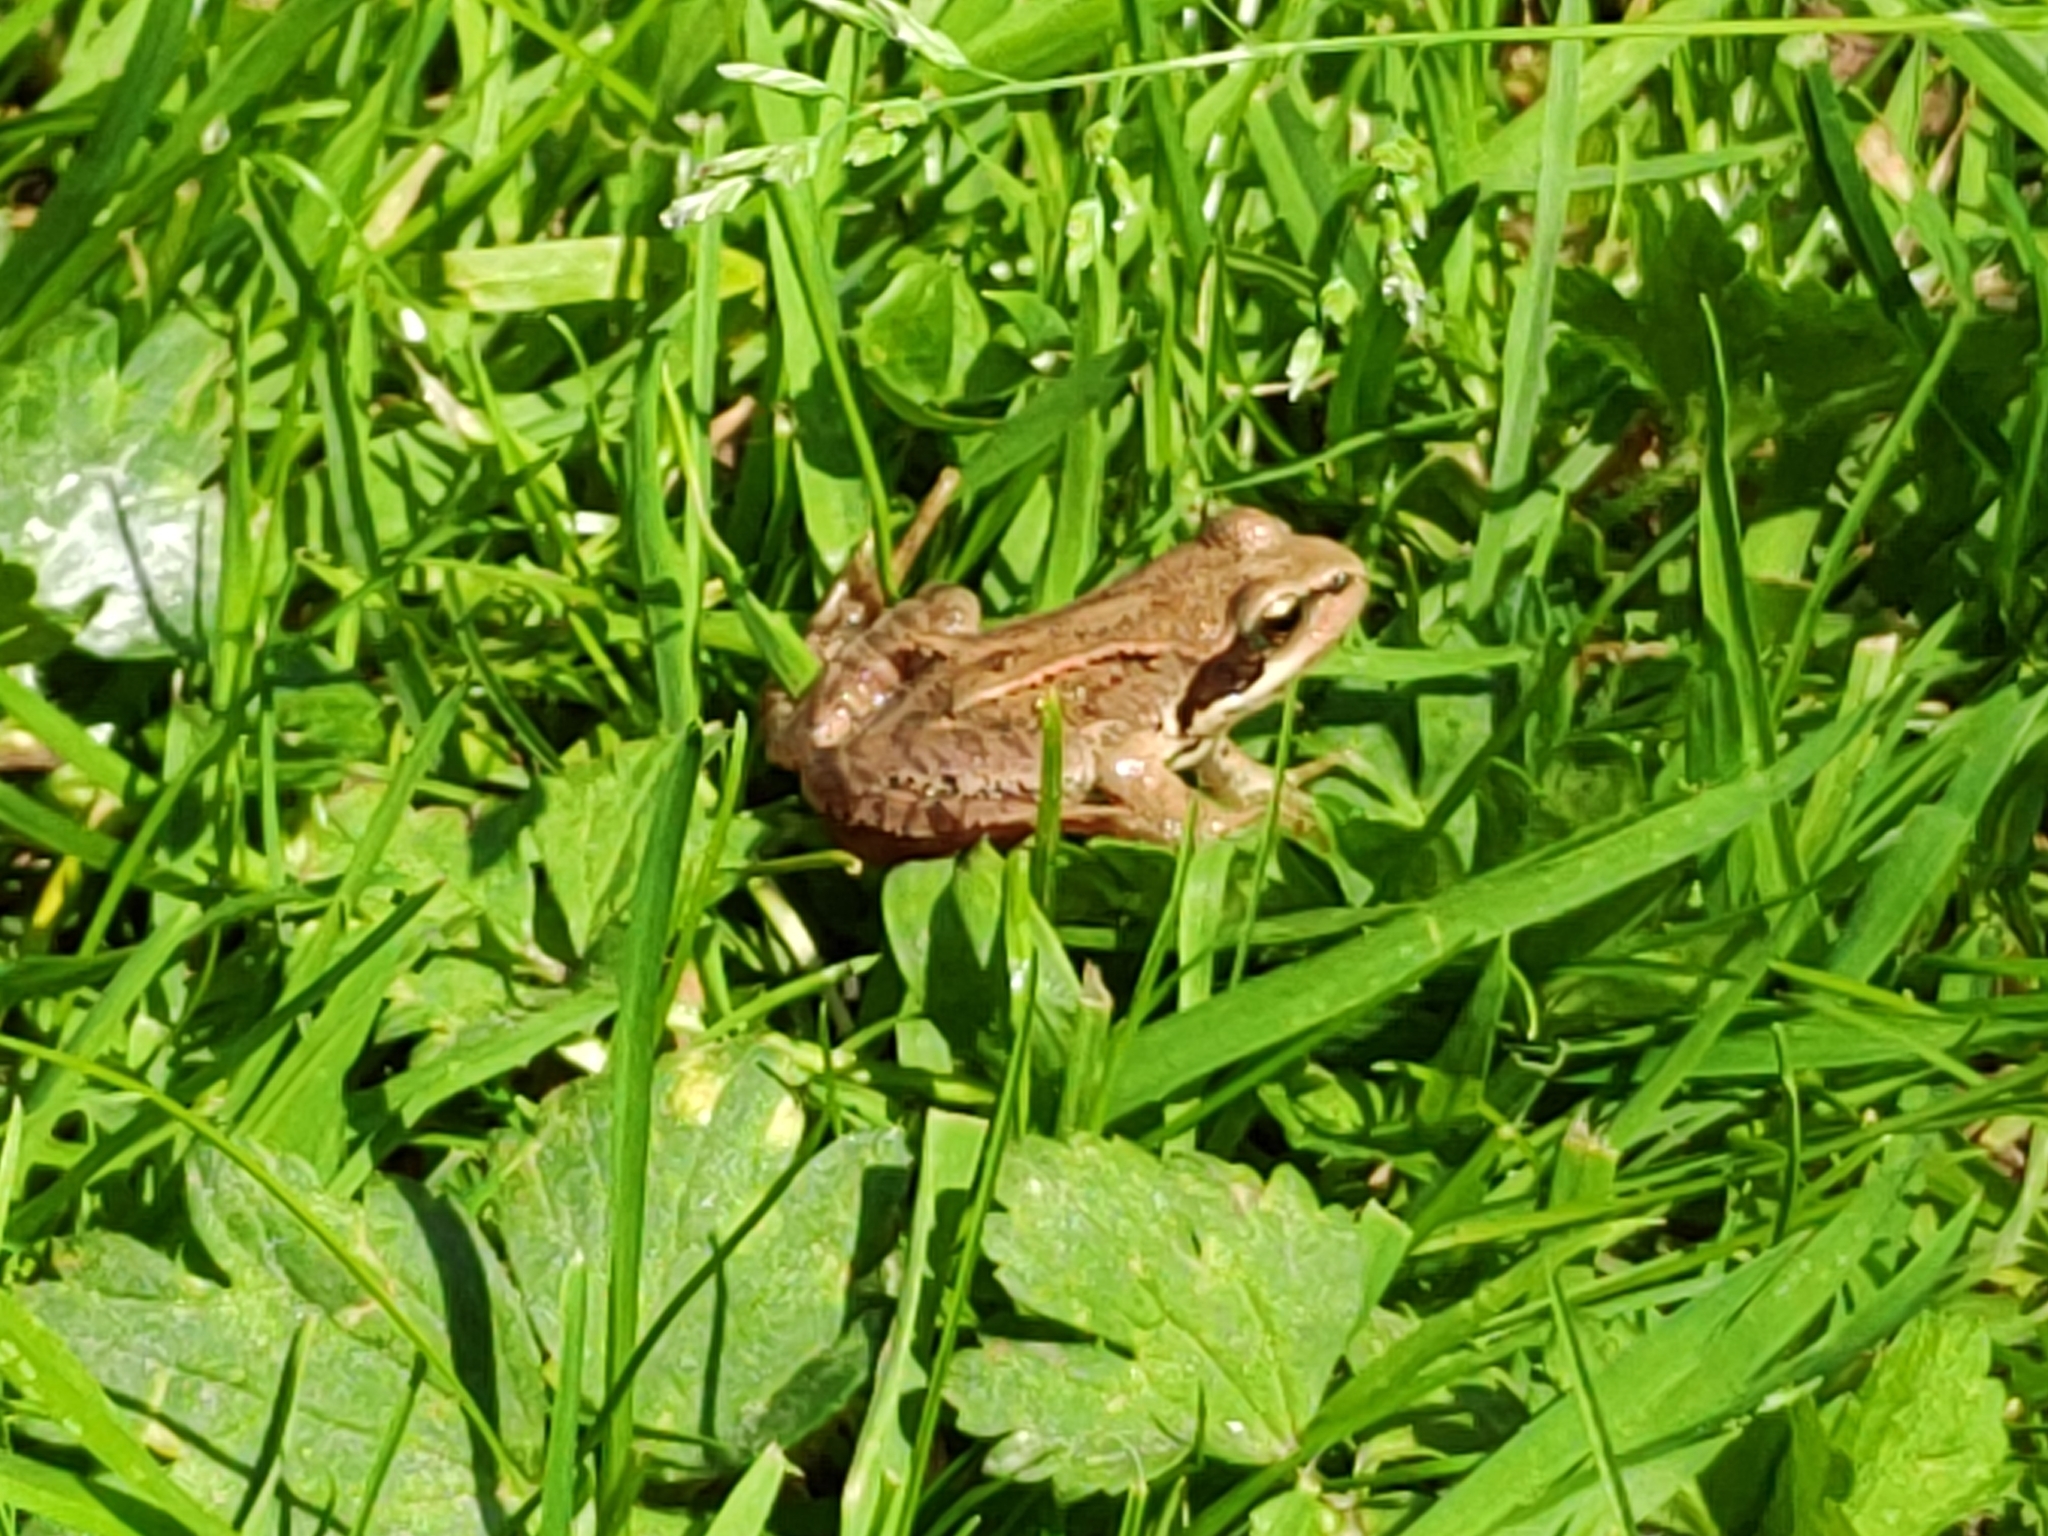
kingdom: Animalia
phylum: Chordata
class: Amphibia
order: Anura
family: Ranidae
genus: Rana
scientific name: Rana temporaria
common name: Common frog
